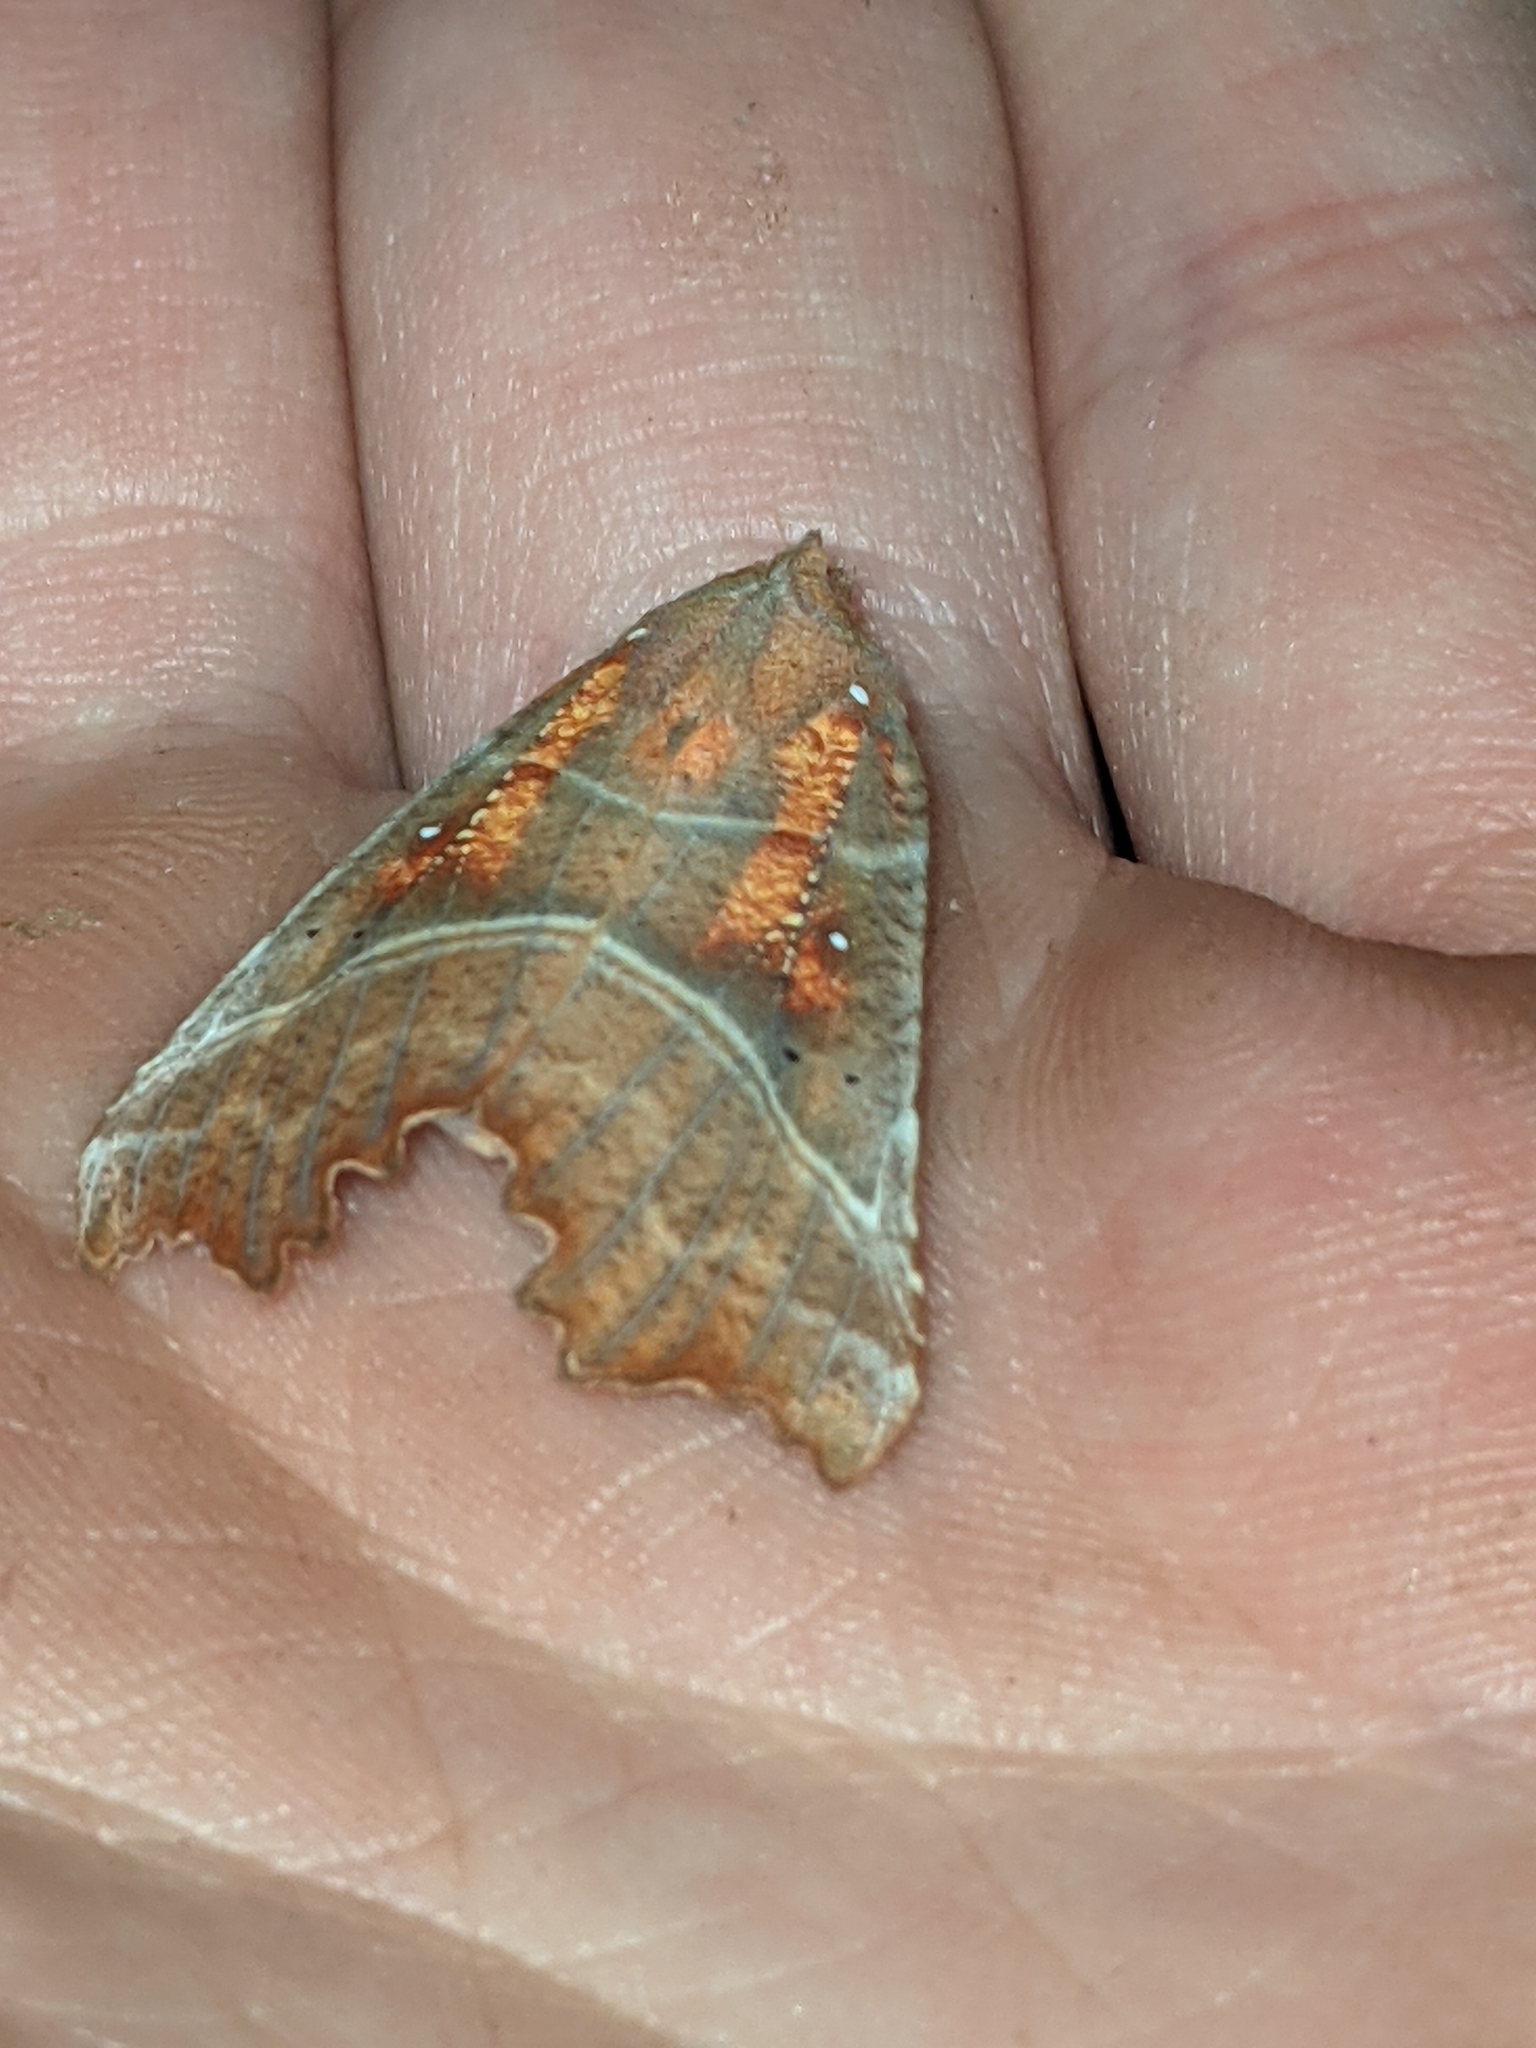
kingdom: Animalia
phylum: Arthropoda
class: Insecta
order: Lepidoptera
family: Erebidae
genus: Scoliopteryx
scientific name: Scoliopteryx libatrix
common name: Herald
